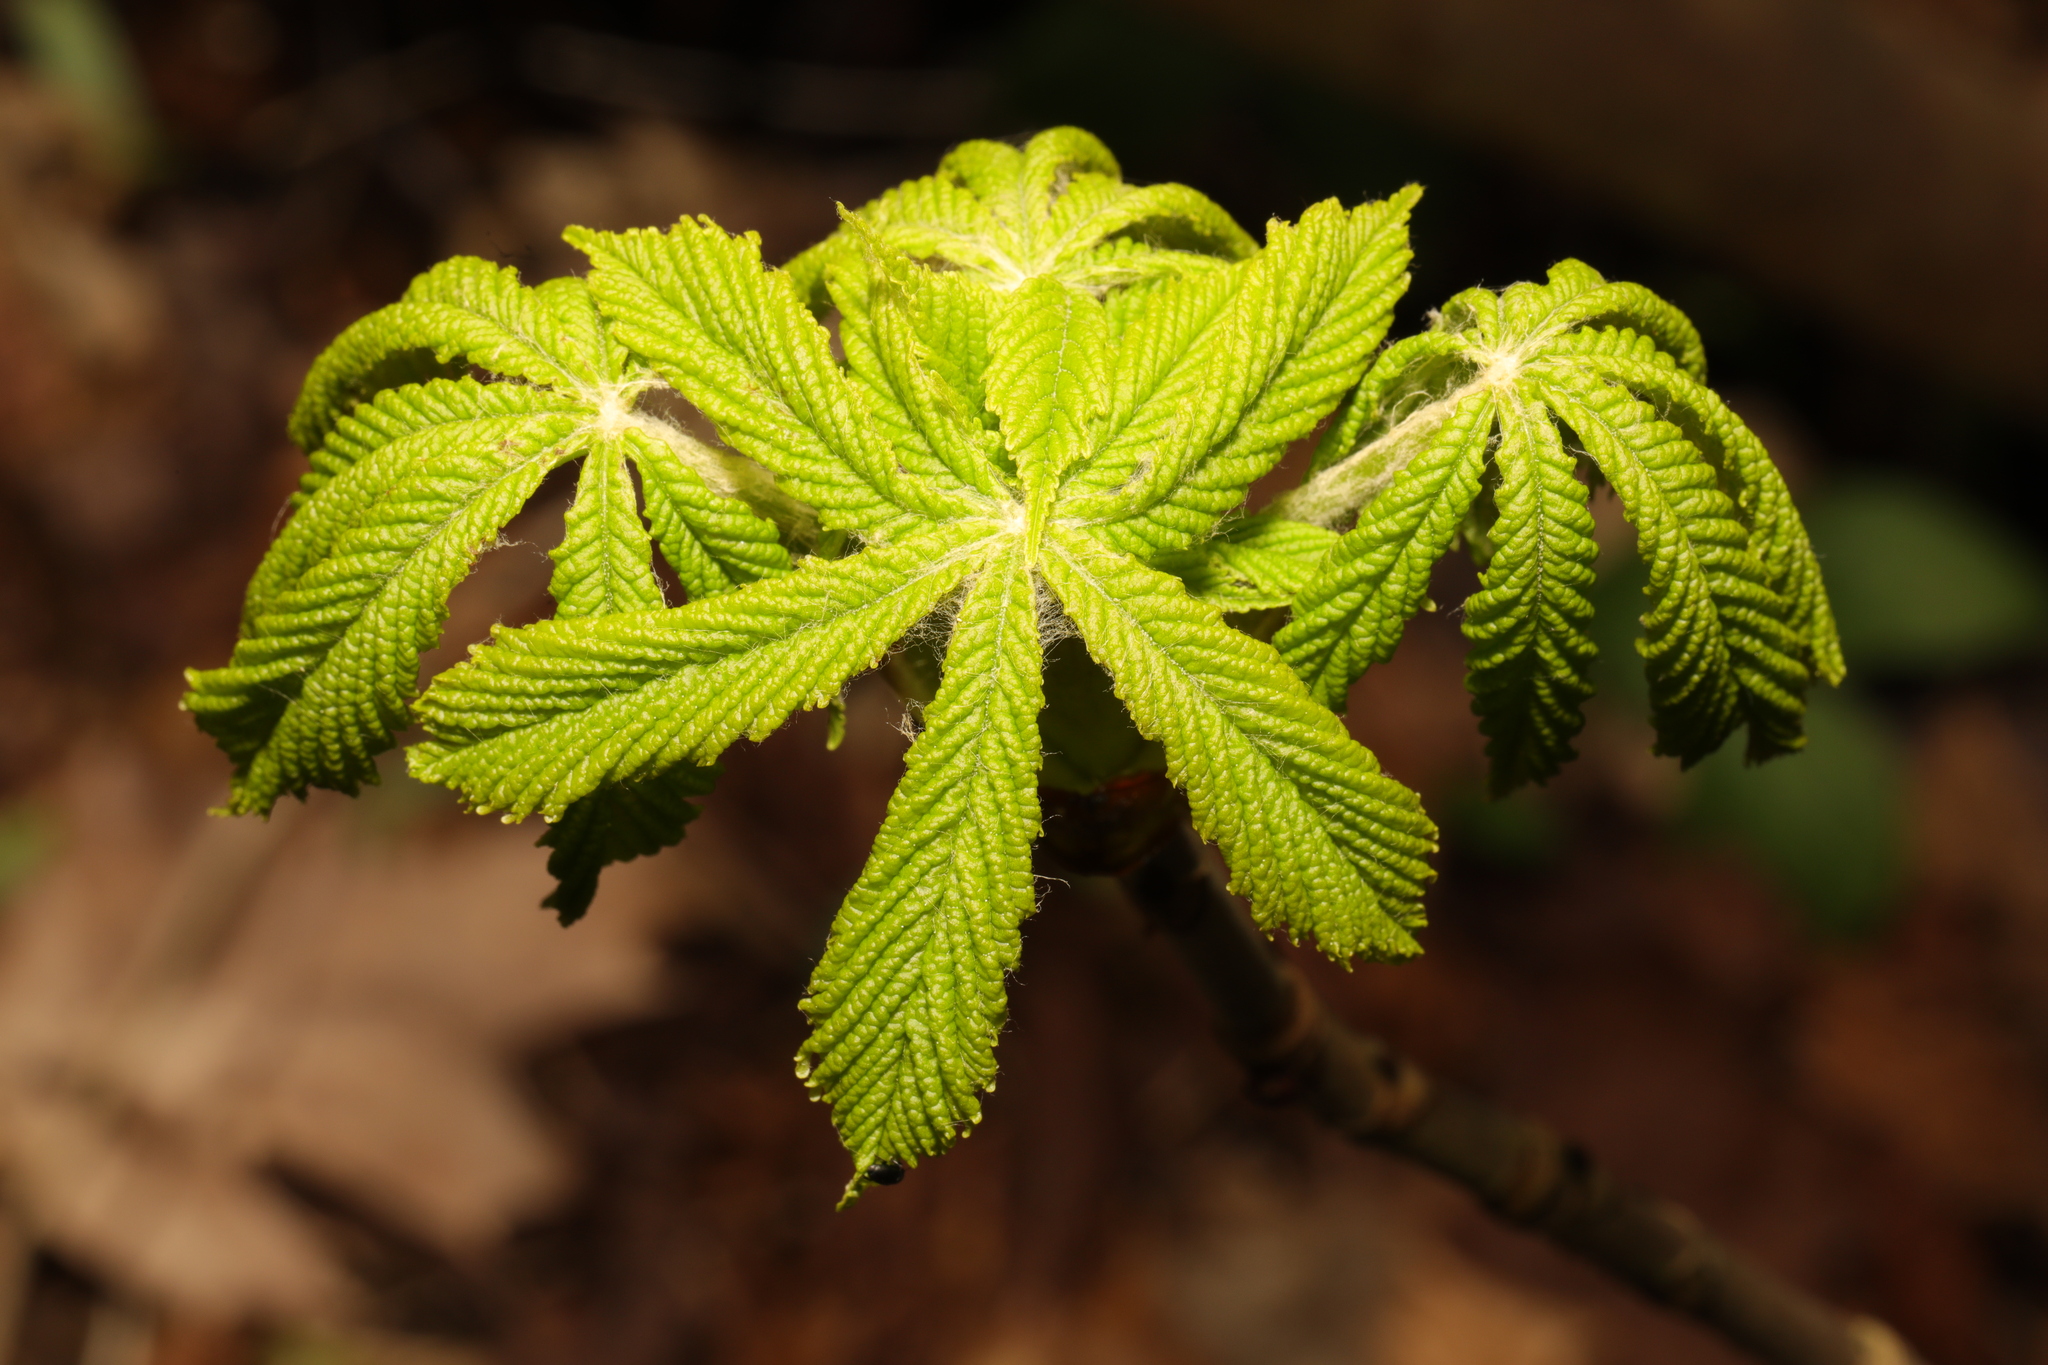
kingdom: Plantae
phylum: Tracheophyta
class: Magnoliopsida
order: Sapindales
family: Sapindaceae
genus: Aesculus
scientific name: Aesculus hippocastanum
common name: Horse-chestnut
